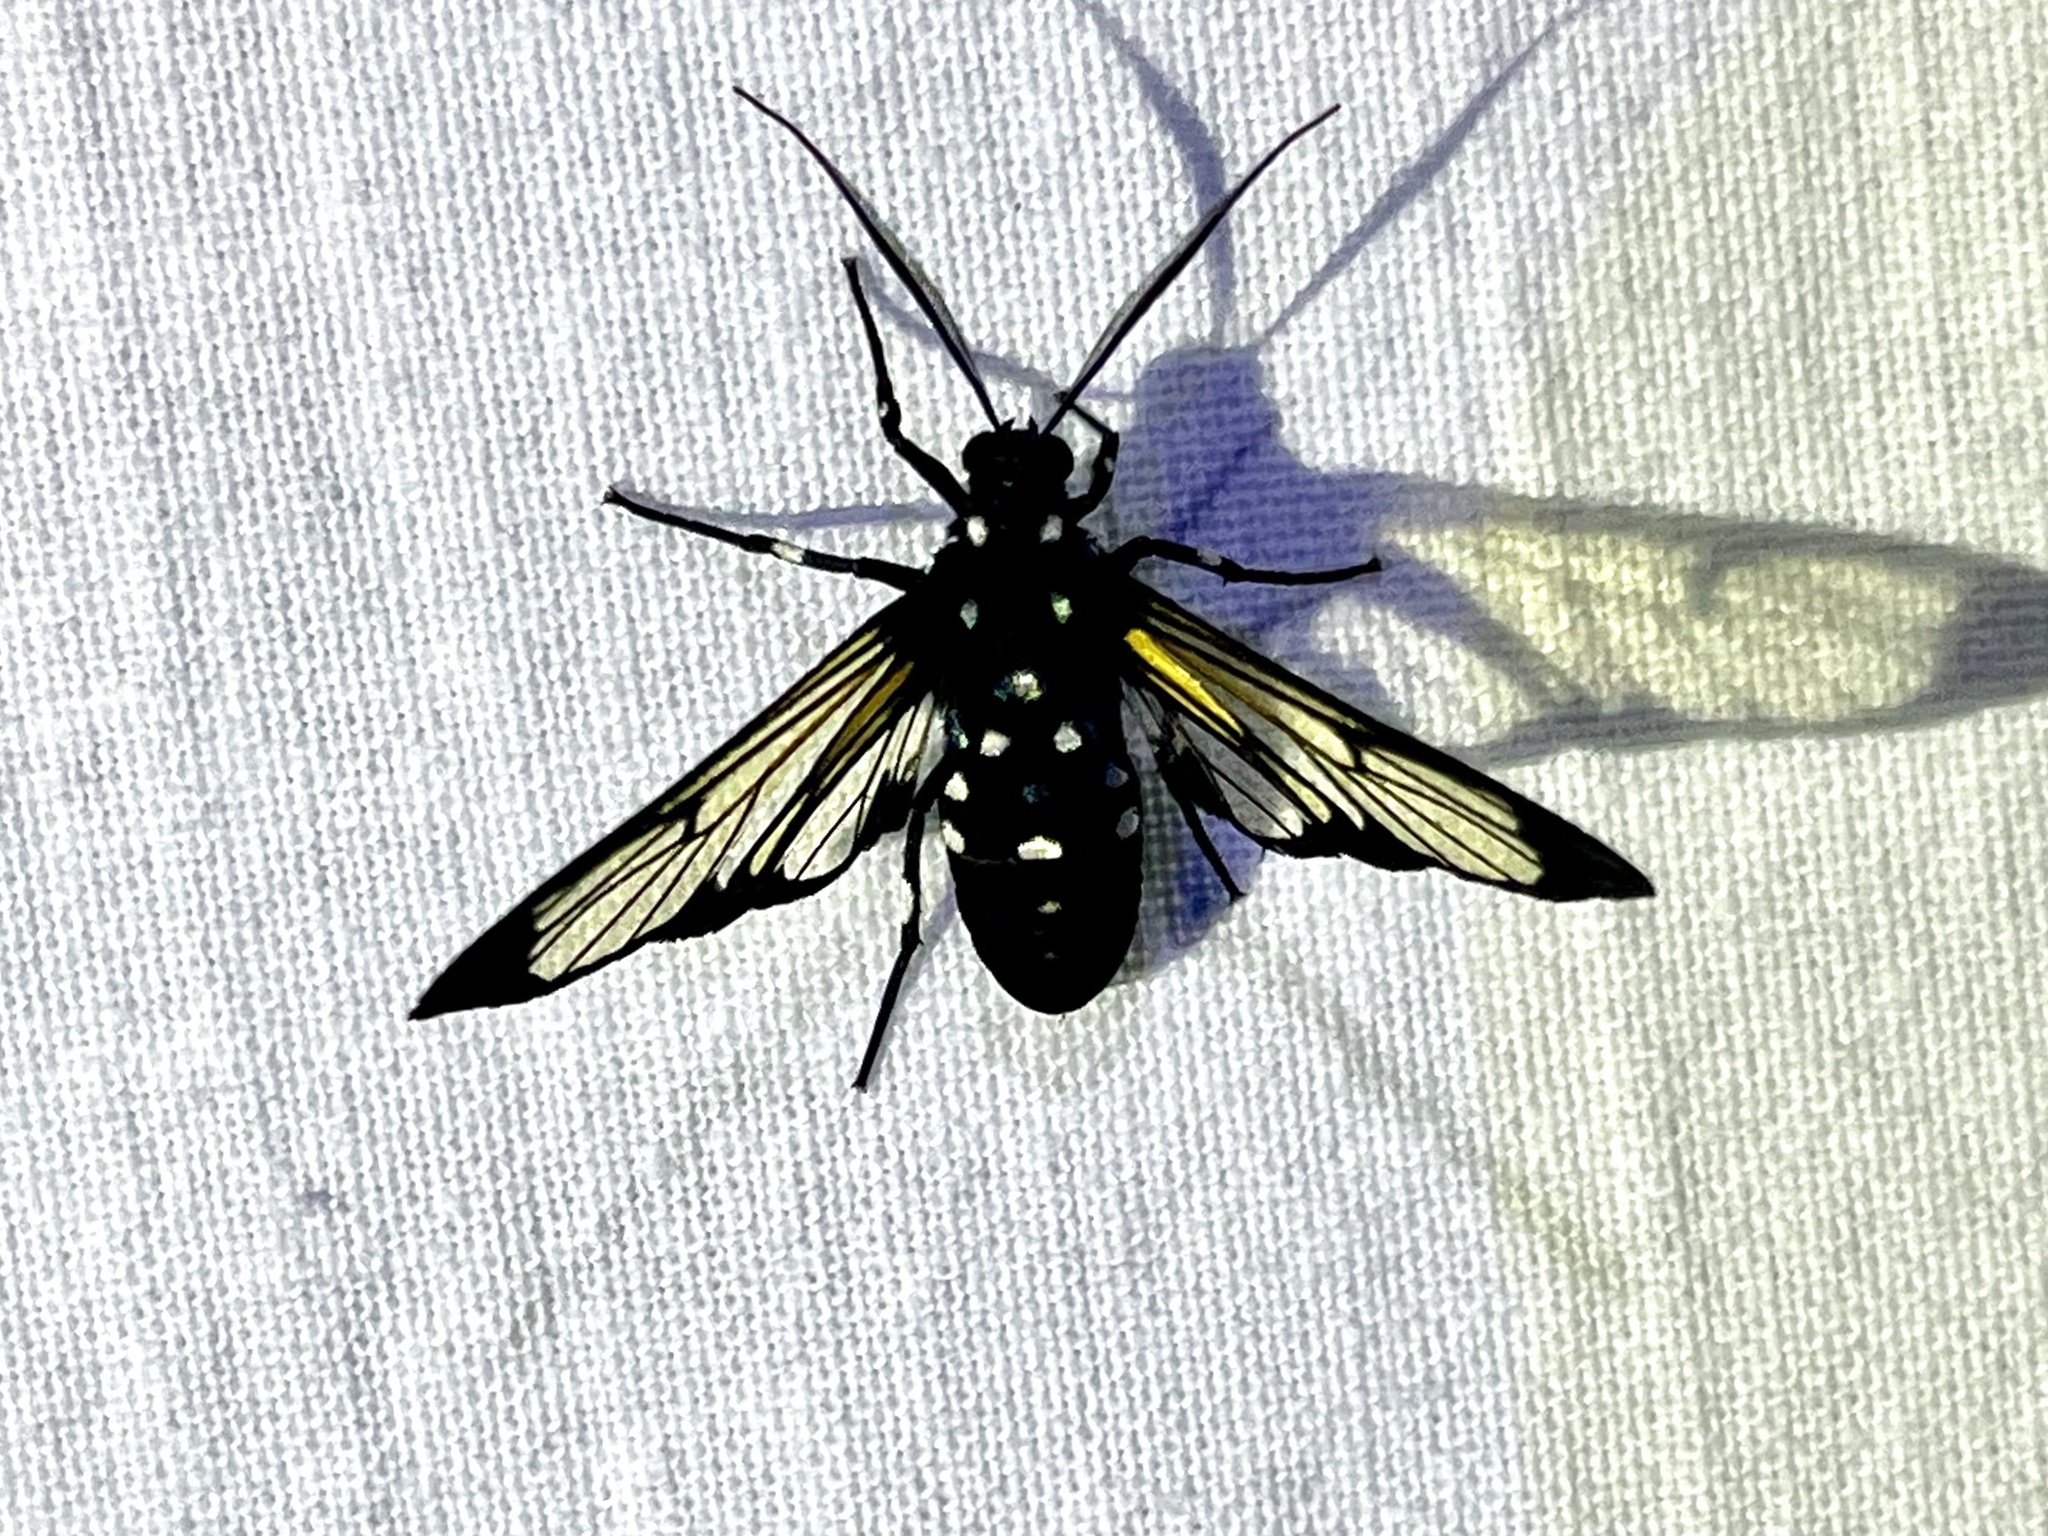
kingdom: Animalia
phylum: Arthropoda
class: Insecta
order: Lepidoptera
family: Erebidae
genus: Homoeocera
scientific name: Homoeocera stictosoma
